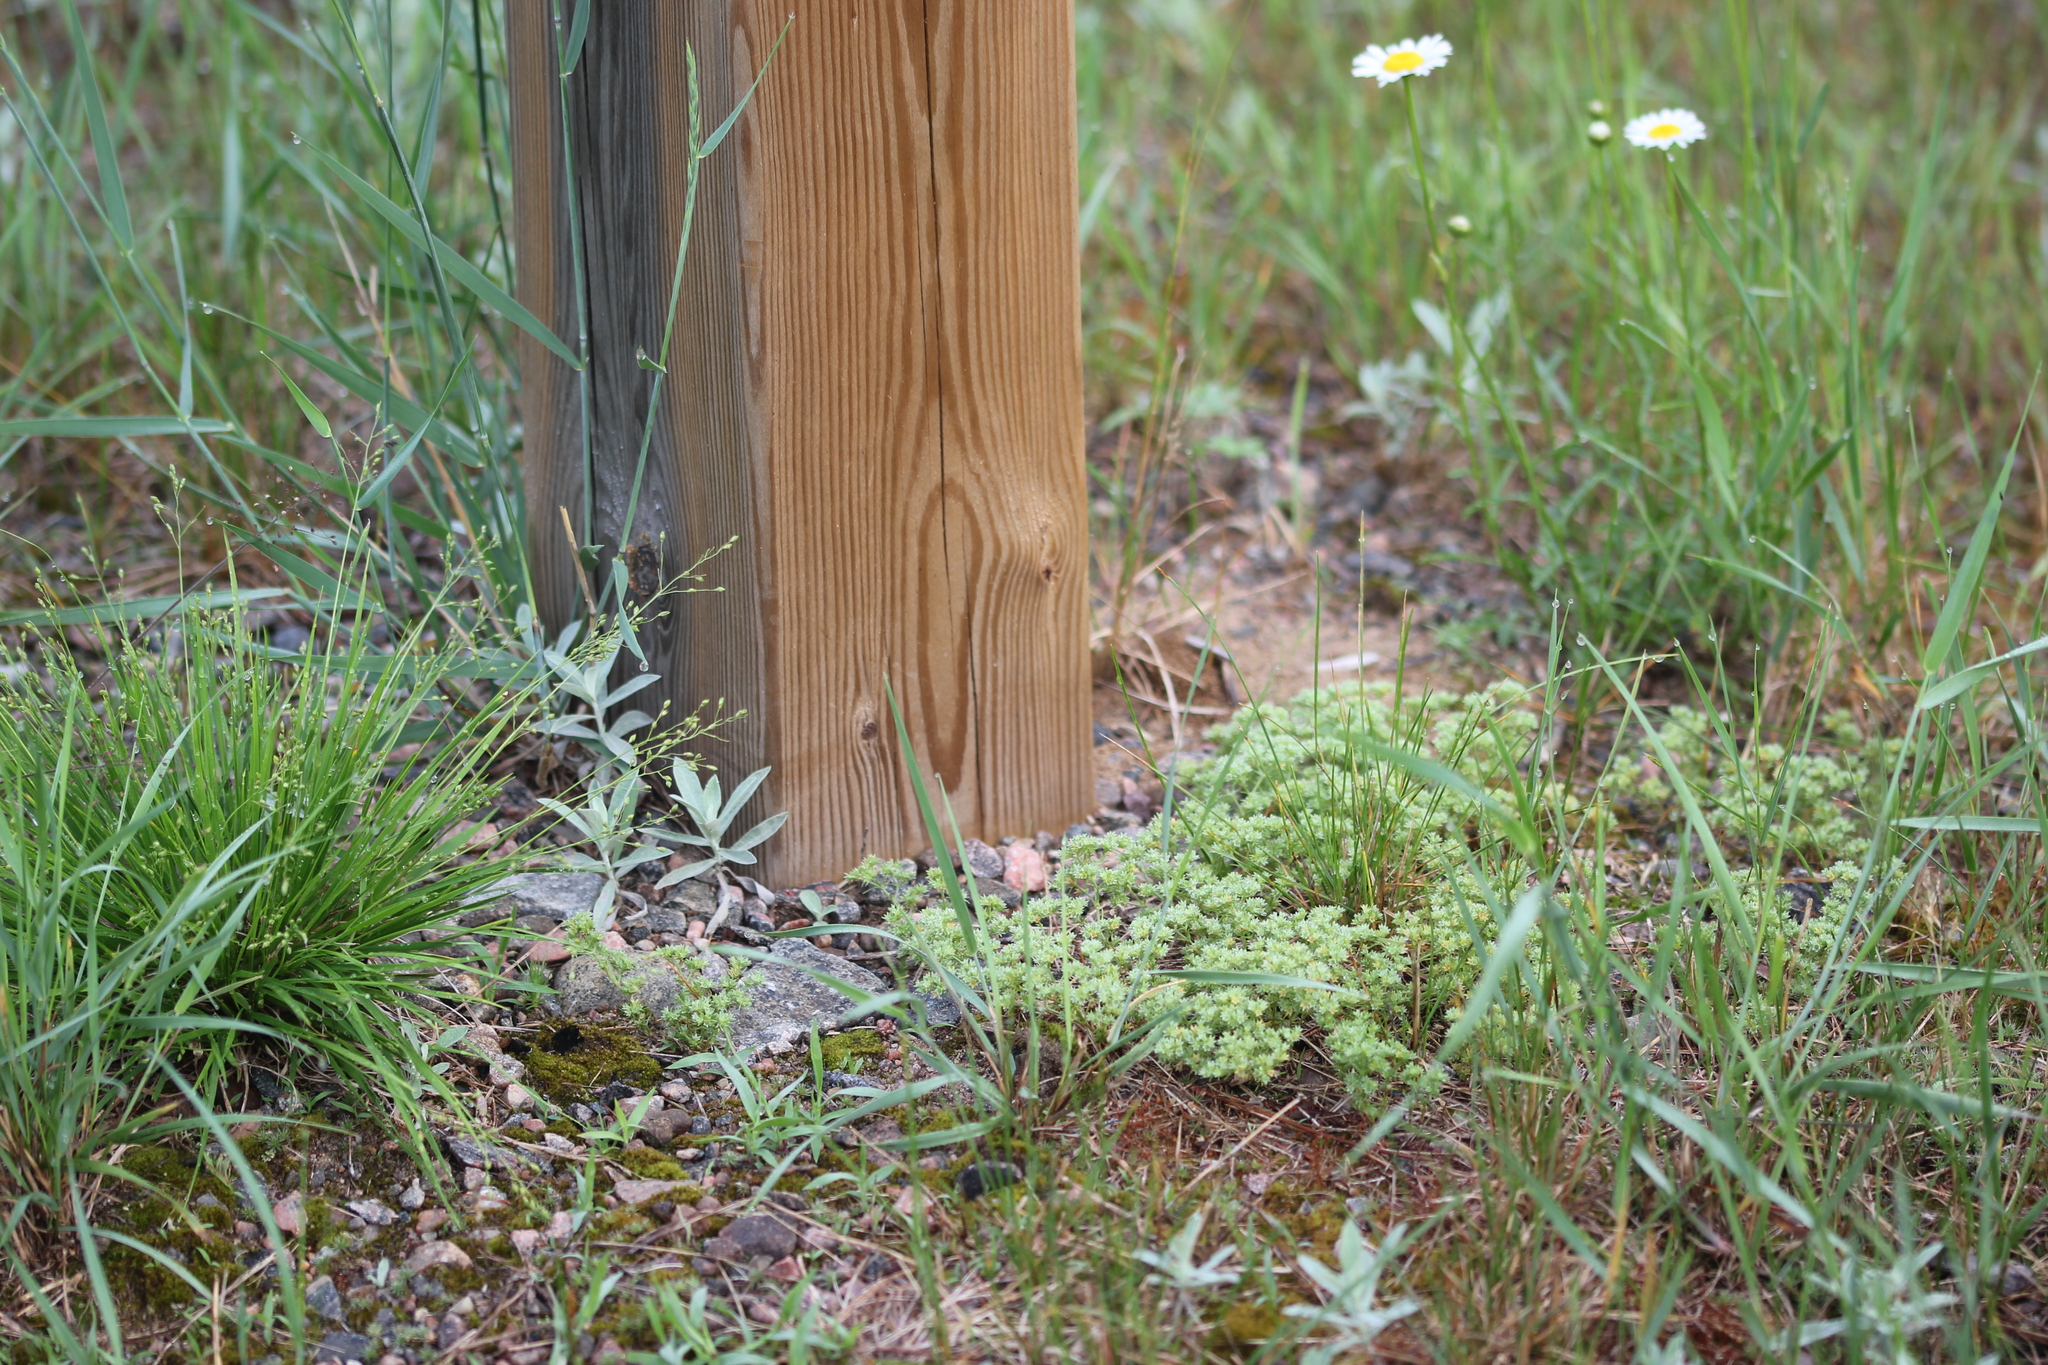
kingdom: Plantae
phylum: Tracheophyta
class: Magnoliopsida
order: Caryophyllales
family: Caryophyllaceae
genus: Scleranthus
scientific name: Scleranthus annuus
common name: Annual knawel
